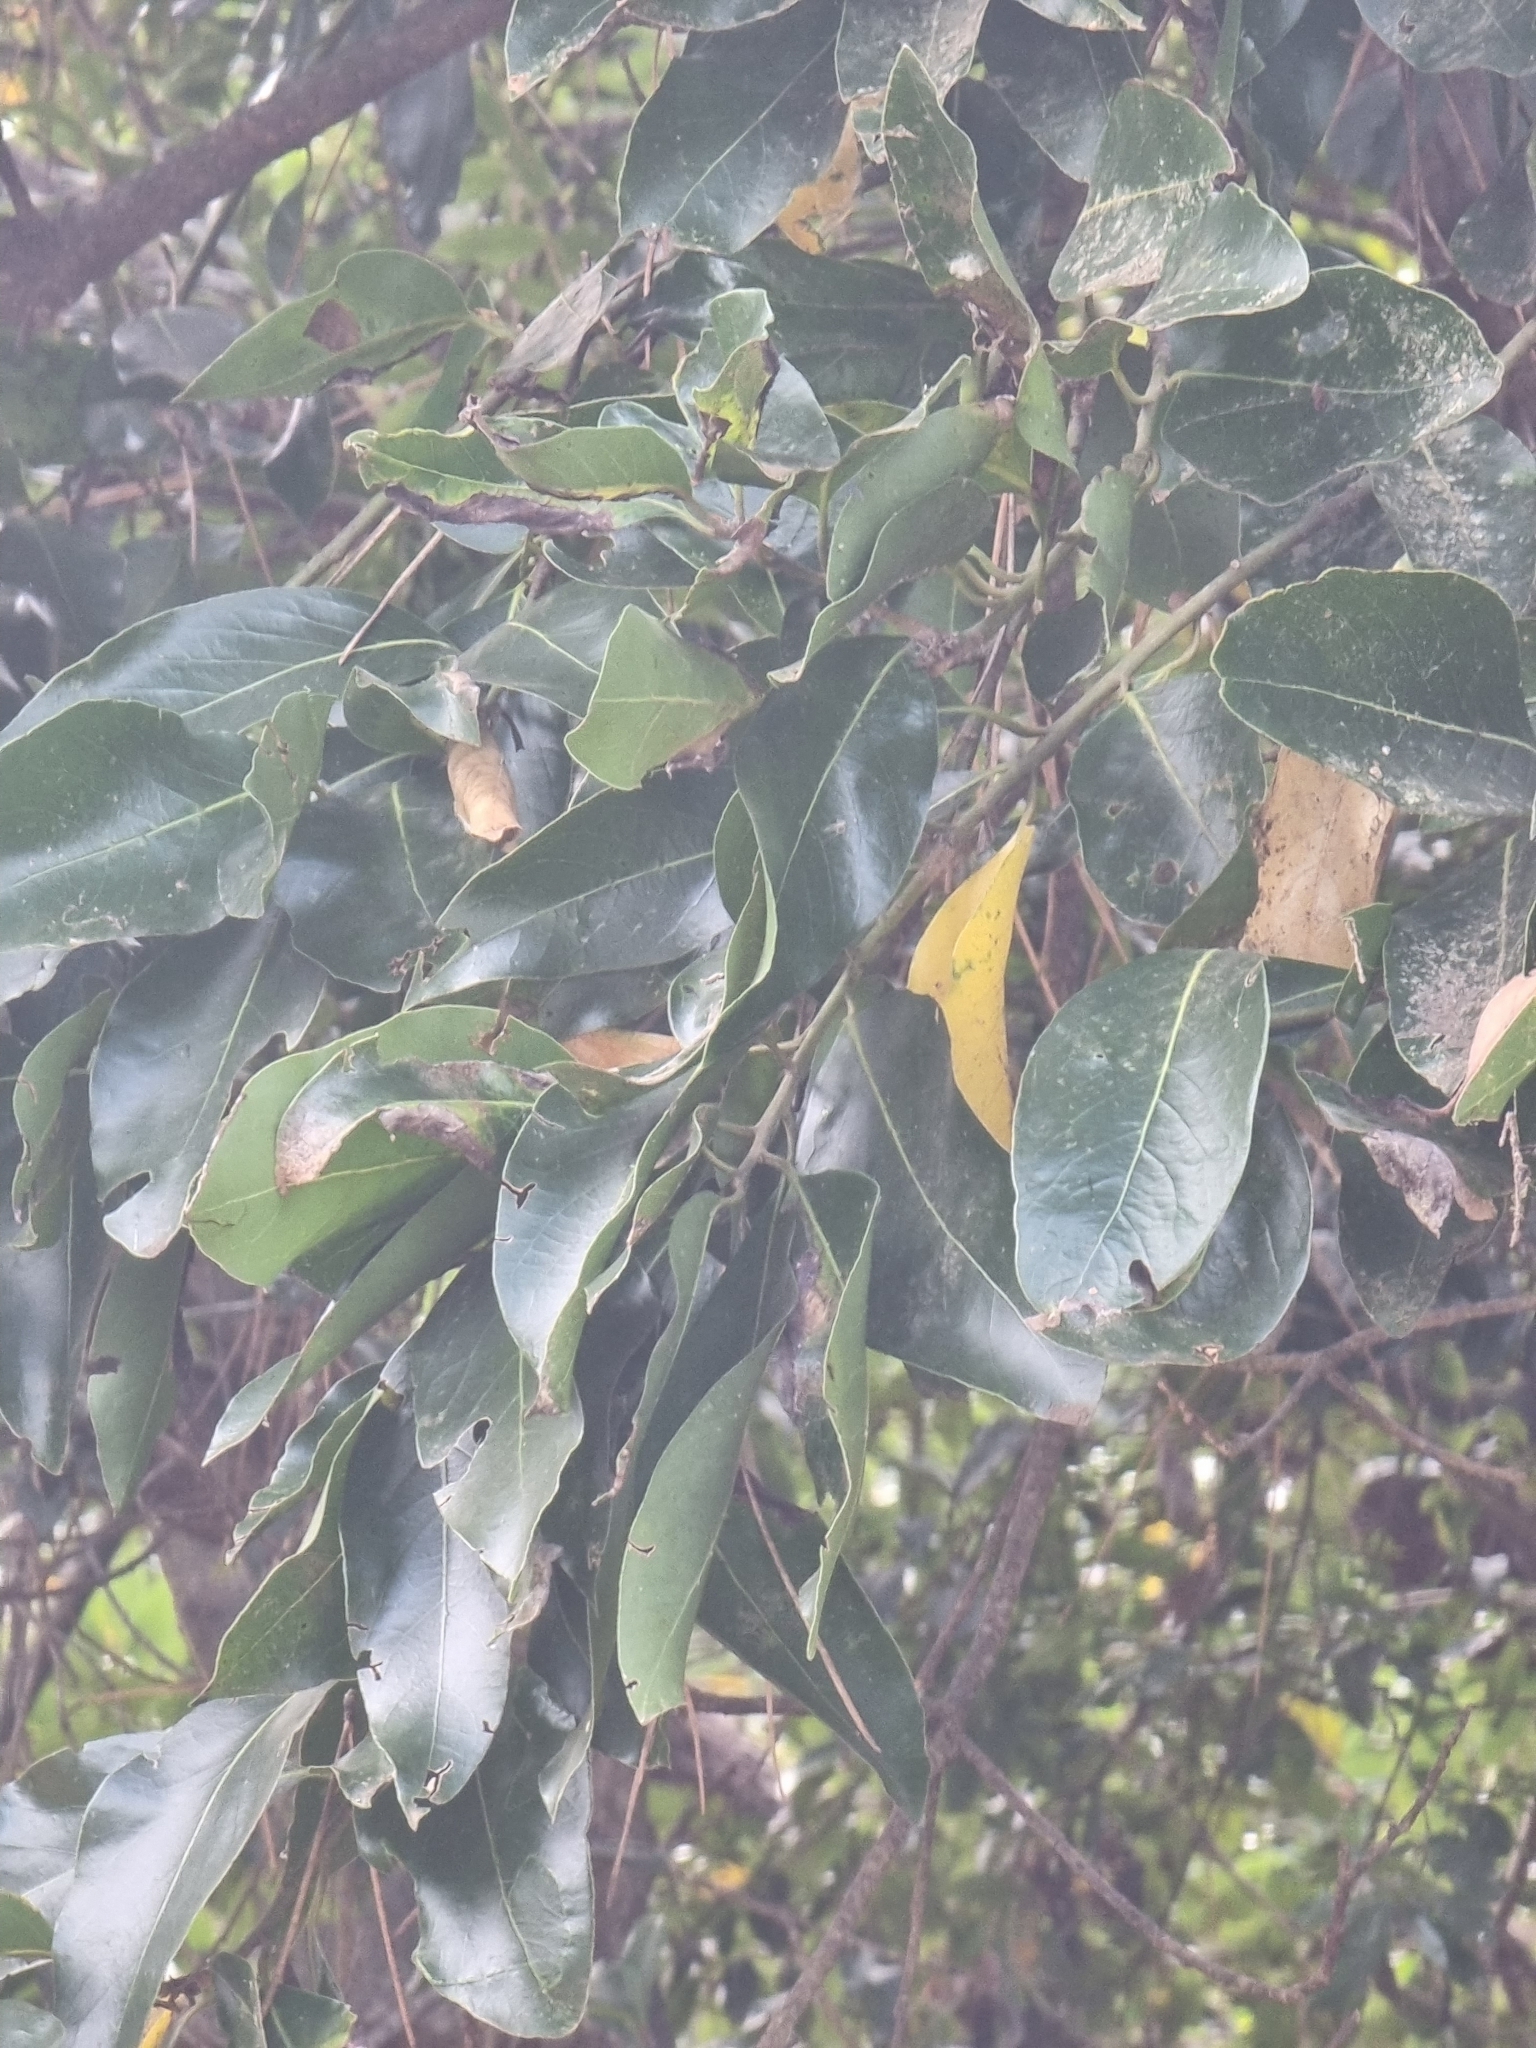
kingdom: Plantae
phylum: Tracheophyta
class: Magnoliopsida
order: Laurales
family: Lauraceae
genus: Laurus
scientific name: Laurus novocanariensis
